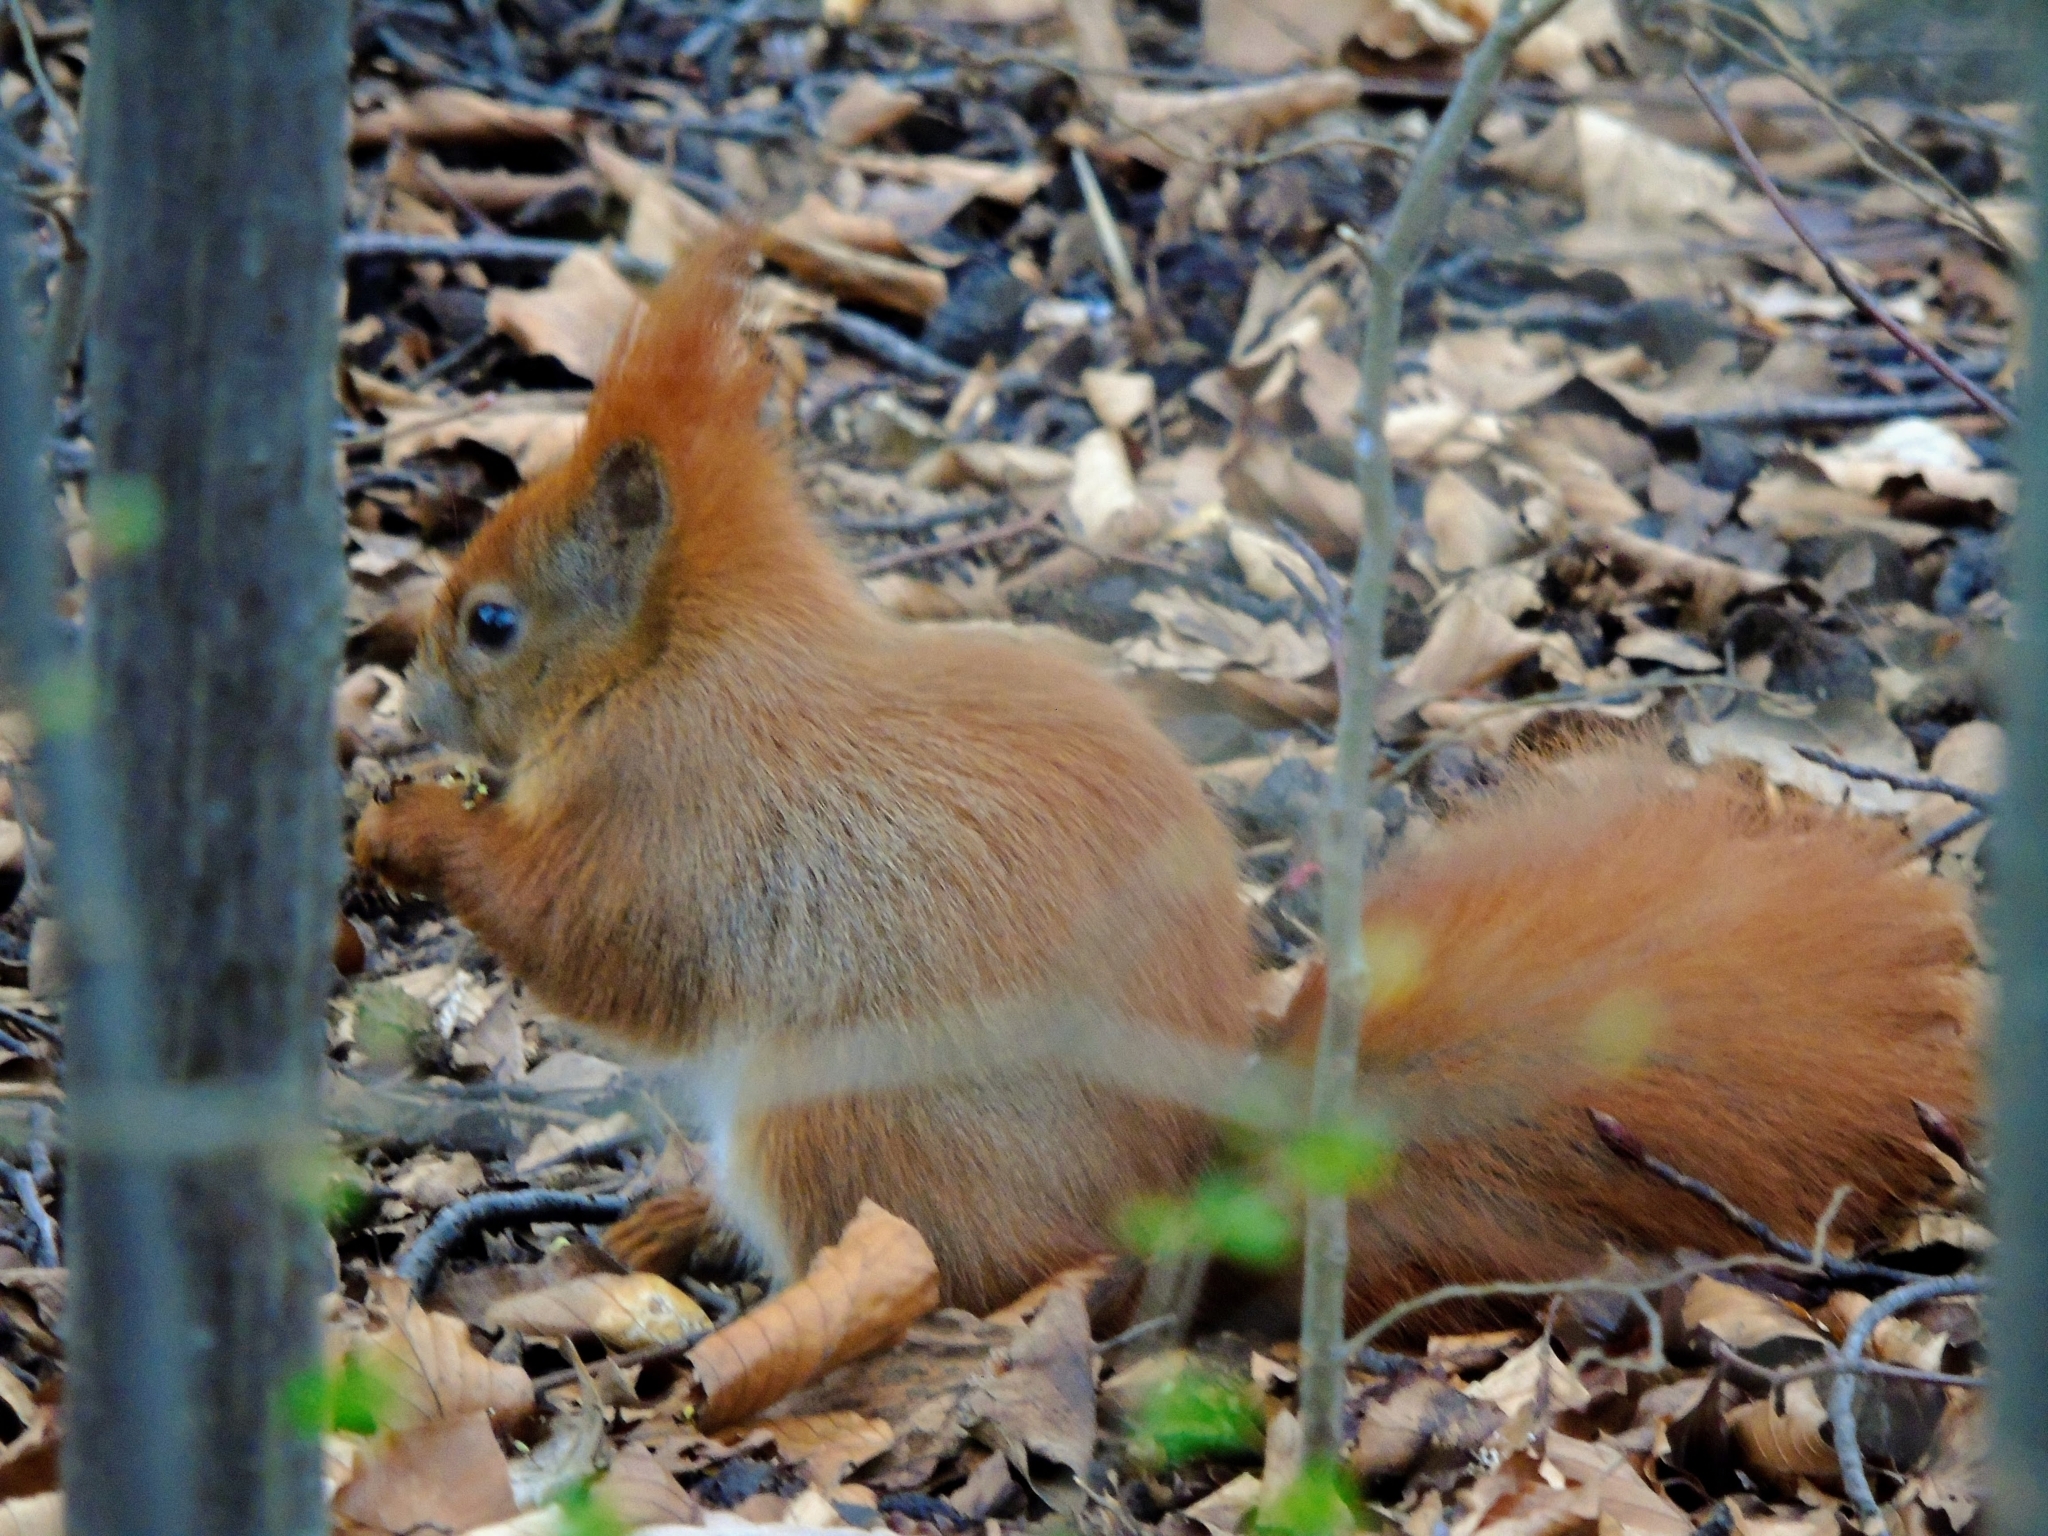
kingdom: Animalia
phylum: Chordata
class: Mammalia
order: Rodentia
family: Sciuridae
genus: Sciurus
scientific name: Sciurus vulgaris
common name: Eurasian red squirrel
